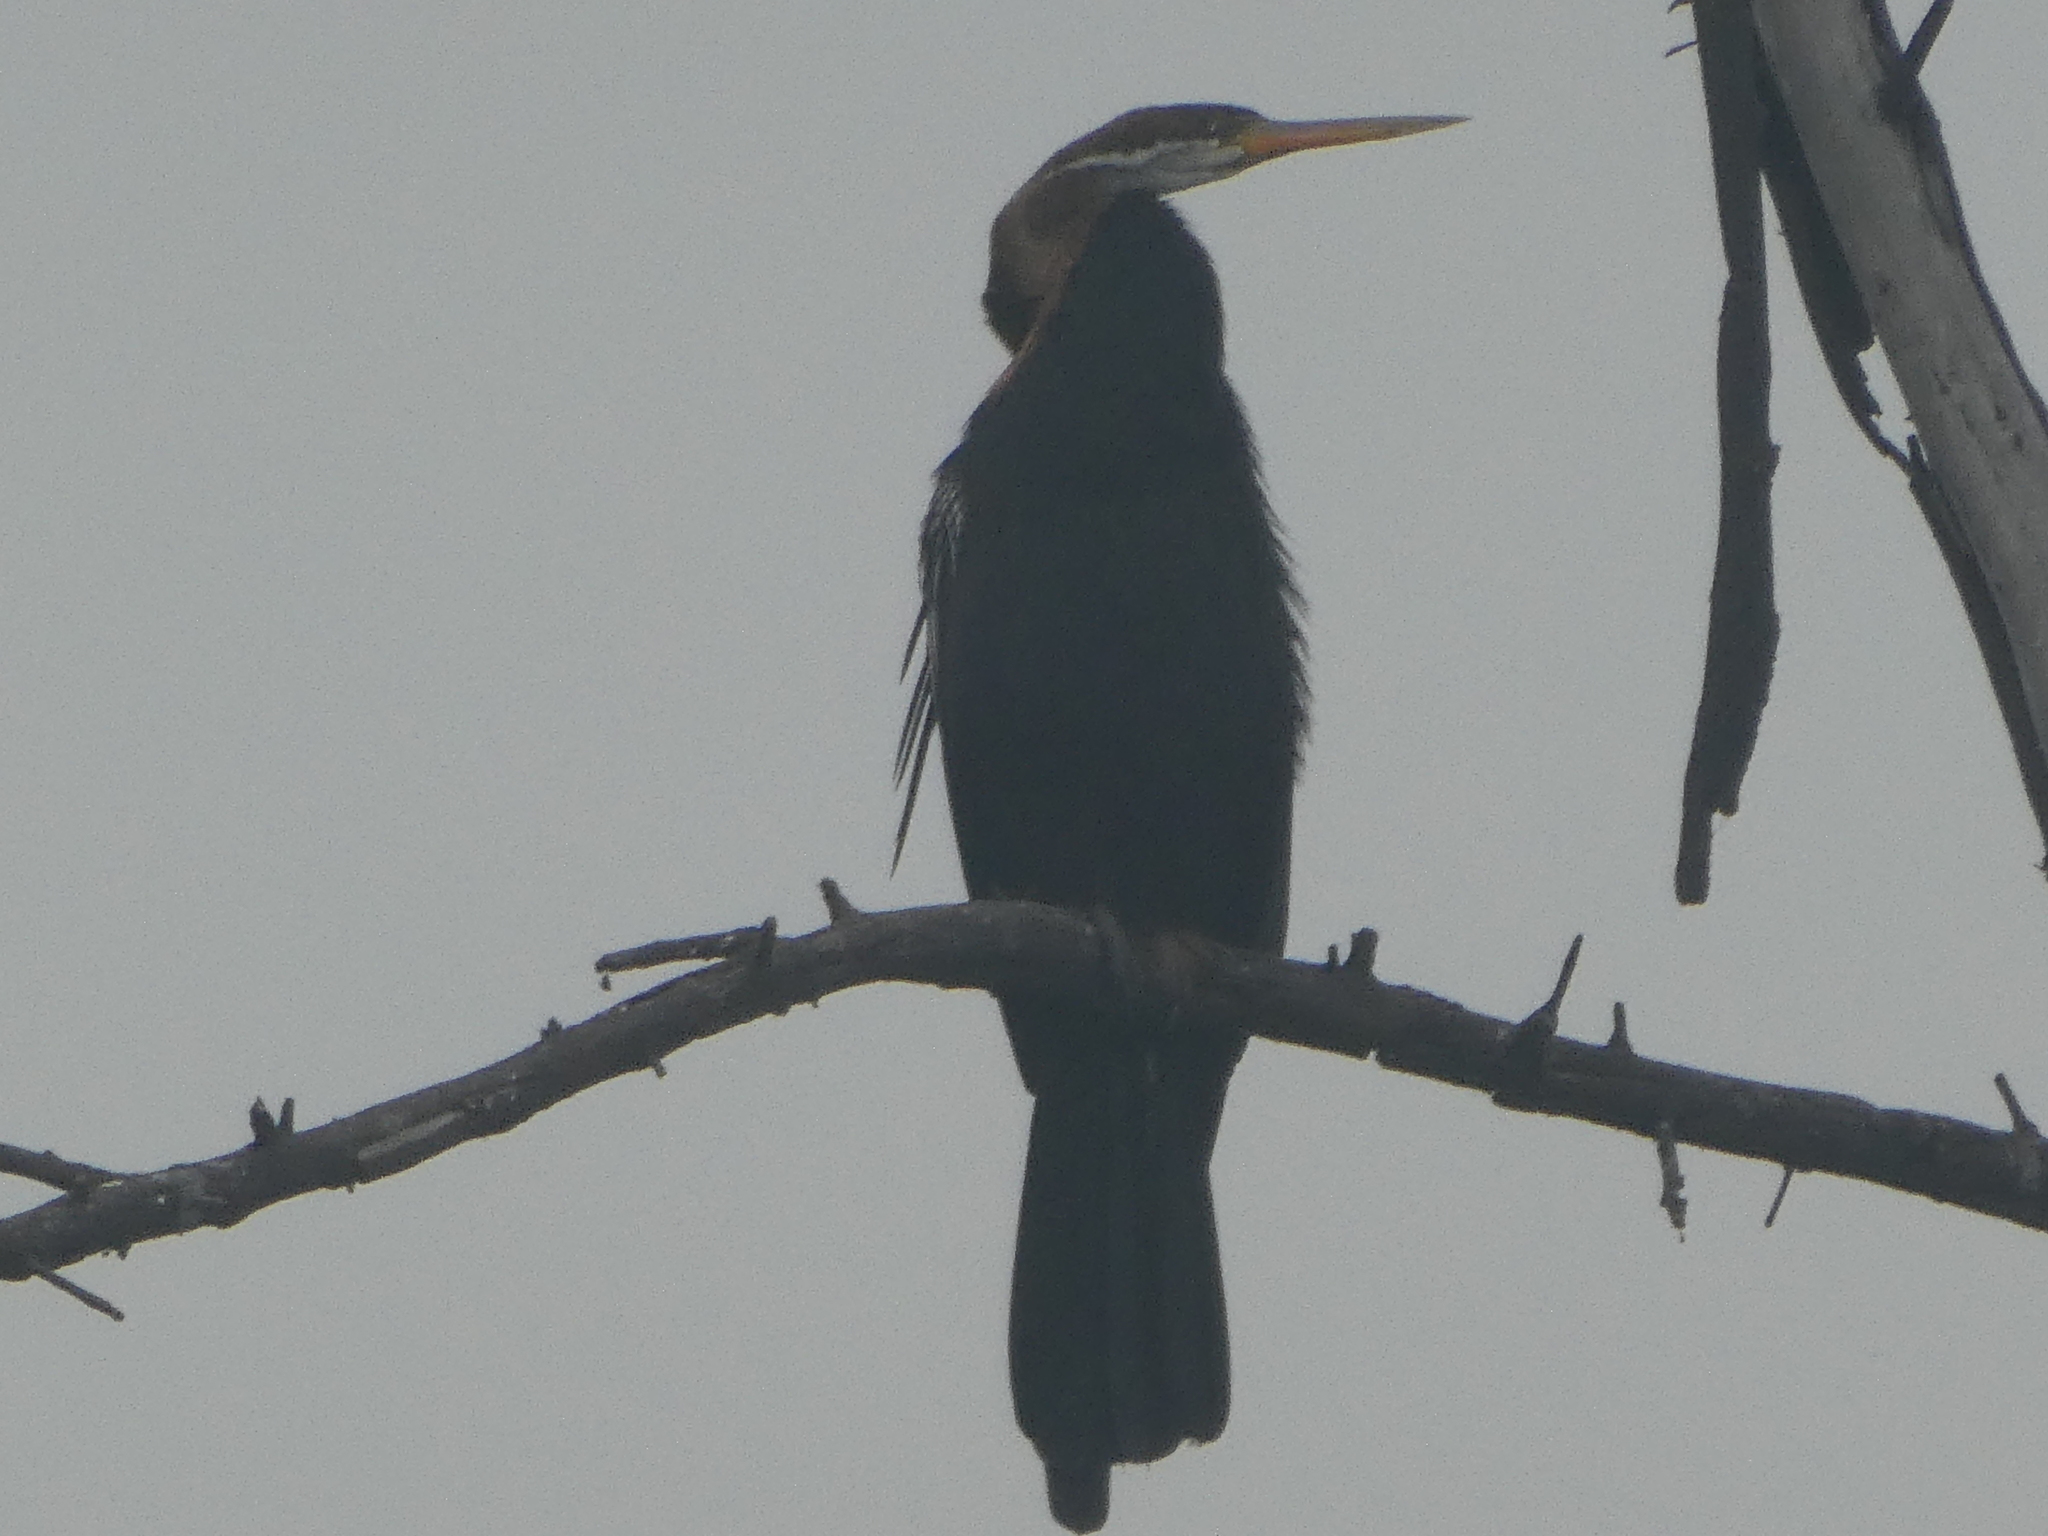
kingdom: Animalia
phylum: Chordata
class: Aves
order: Suliformes
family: Anhingidae
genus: Anhinga
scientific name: Anhinga melanogaster
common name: Oriental darter
